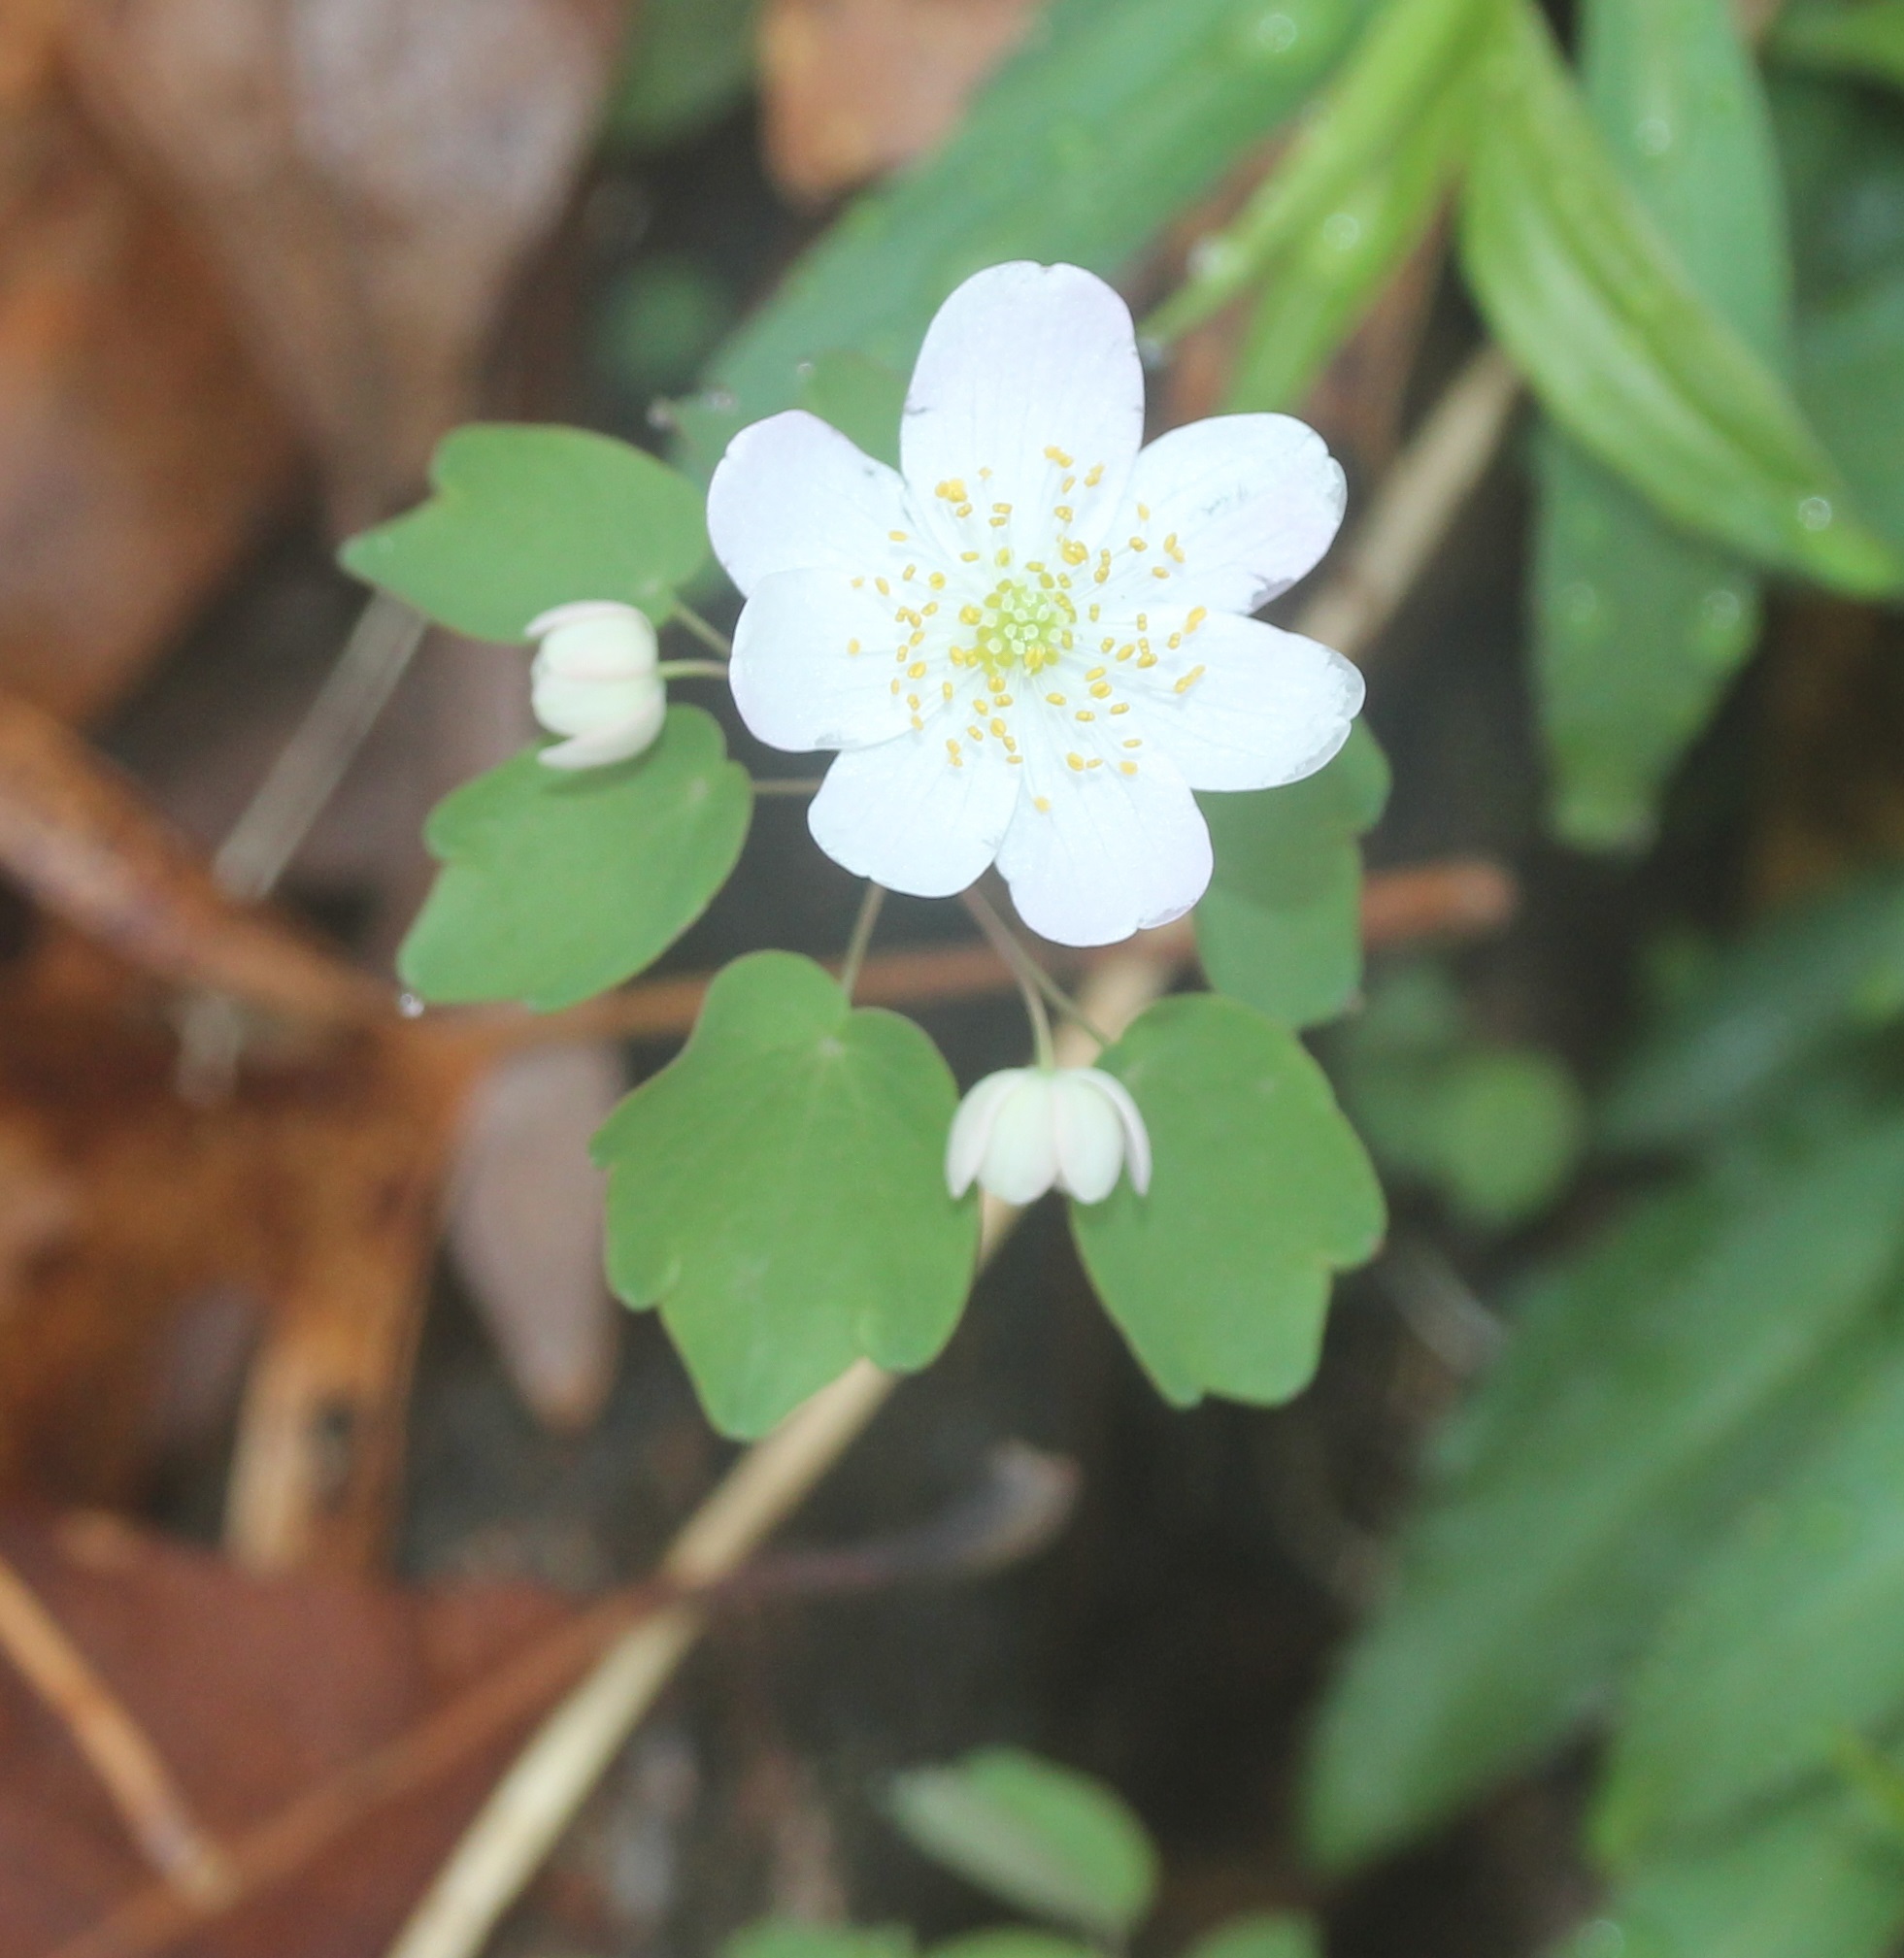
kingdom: Plantae
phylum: Tracheophyta
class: Magnoliopsida
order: Ranunculales
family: Ranunculaceae
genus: Thalictrum
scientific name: Thalictrum thalictroides
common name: Rue-anemone
